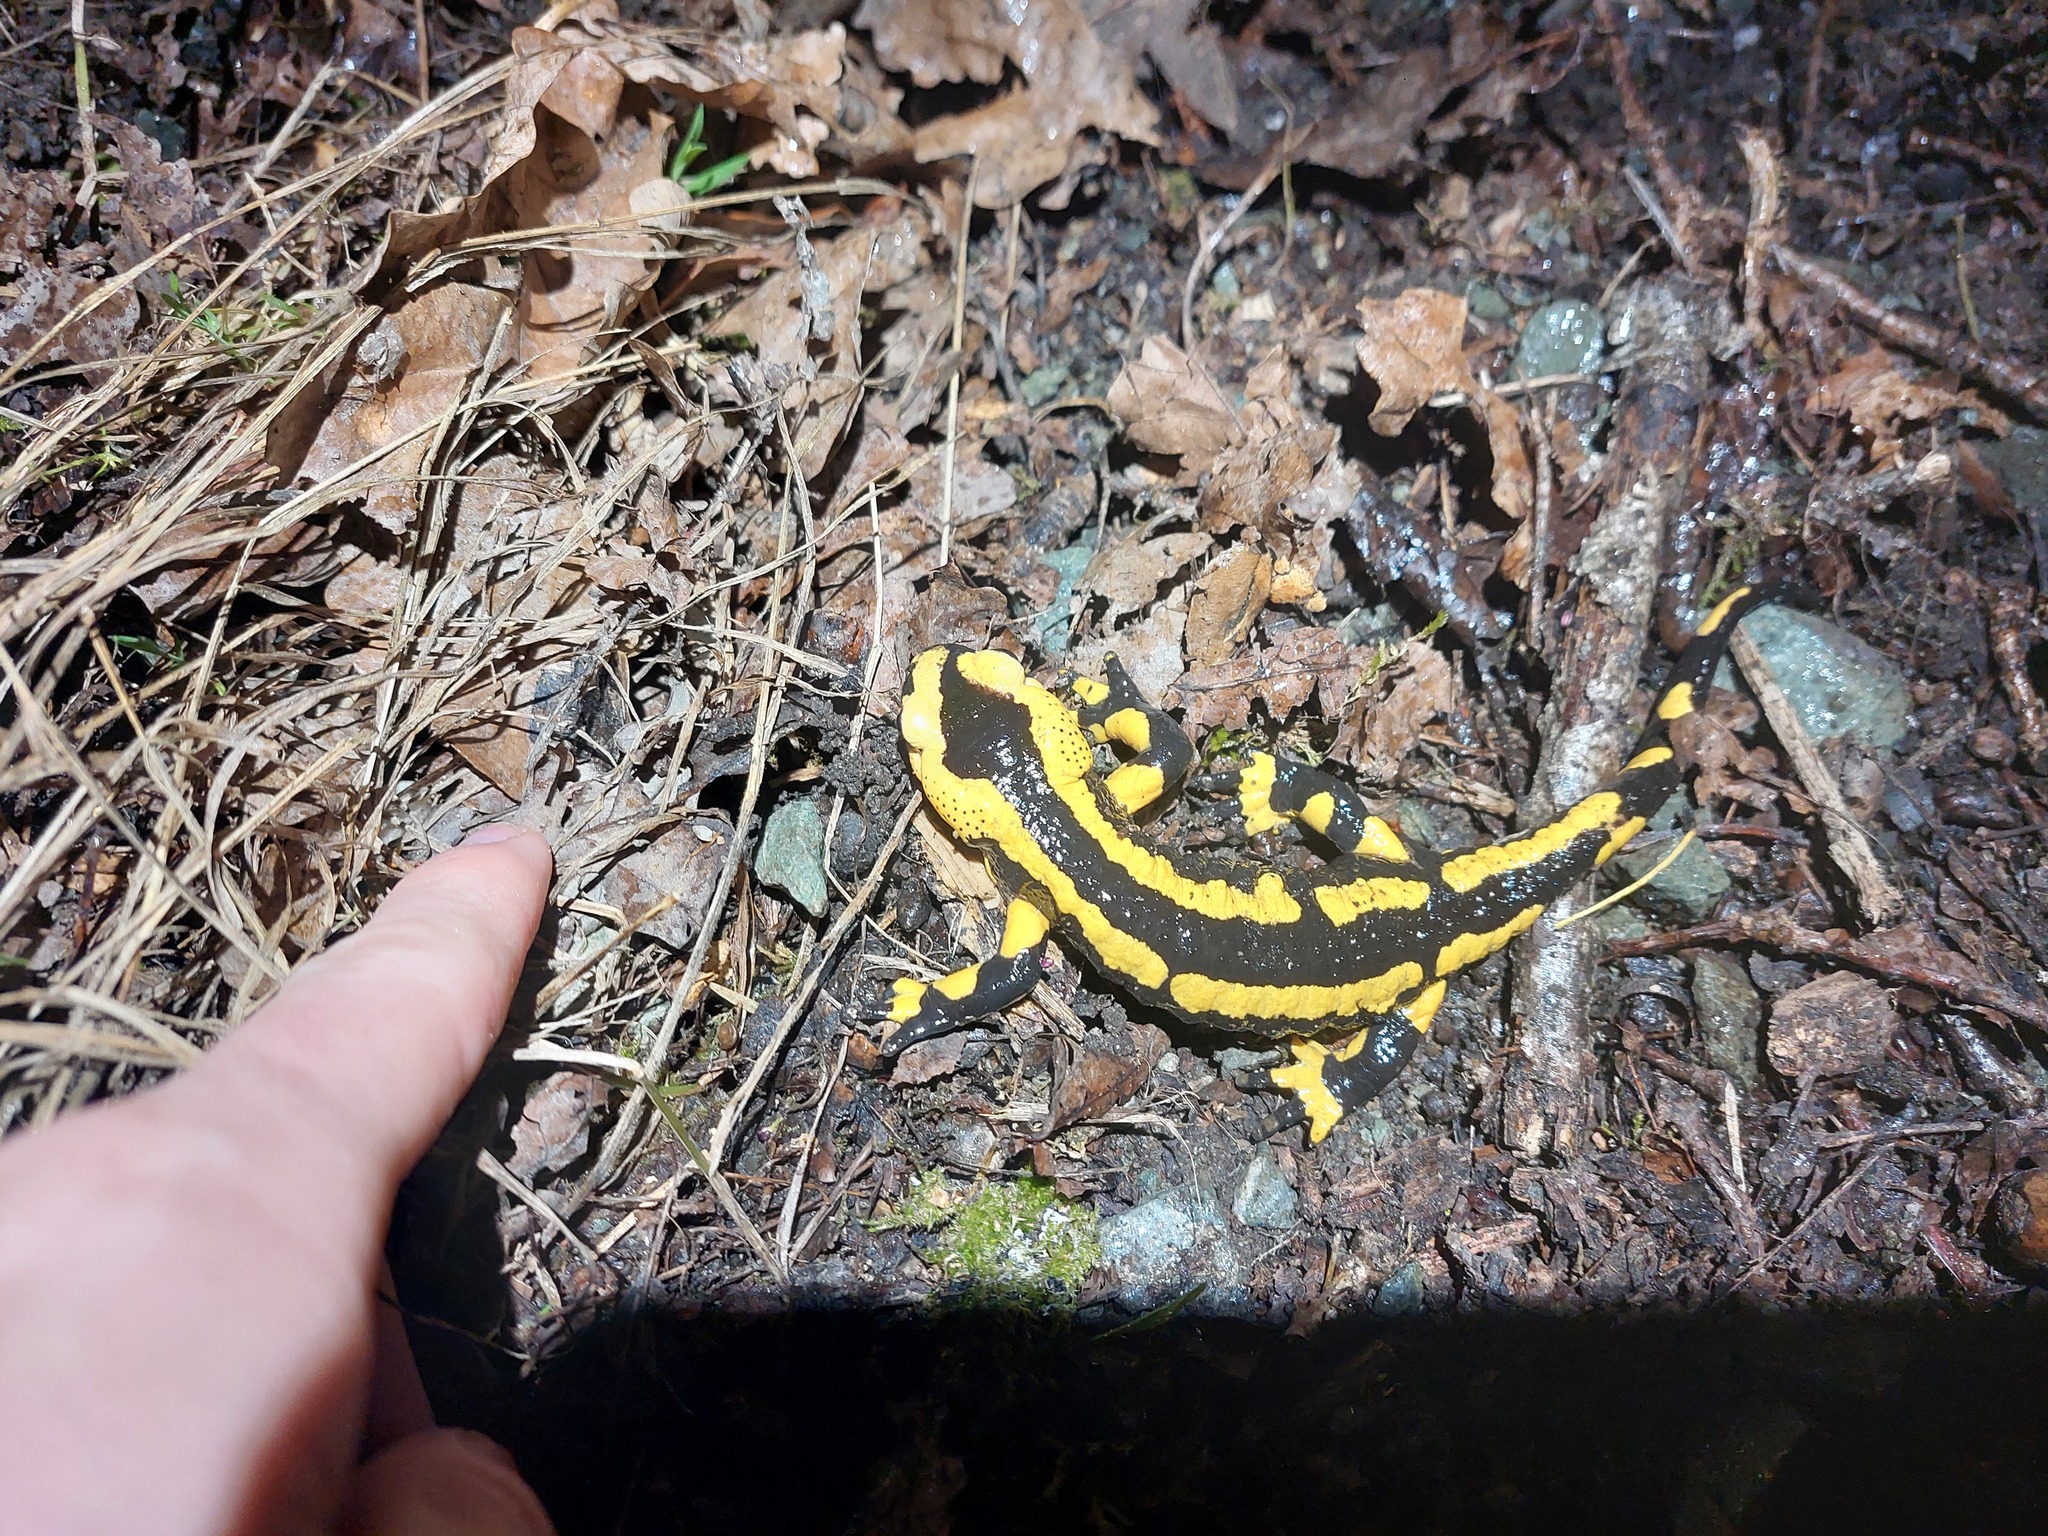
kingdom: Animalia
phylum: Chordata
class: Amphibia
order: Caudata
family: Salamandridae
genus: Salamandra
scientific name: Salamandra salamandra
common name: Fire salamander
